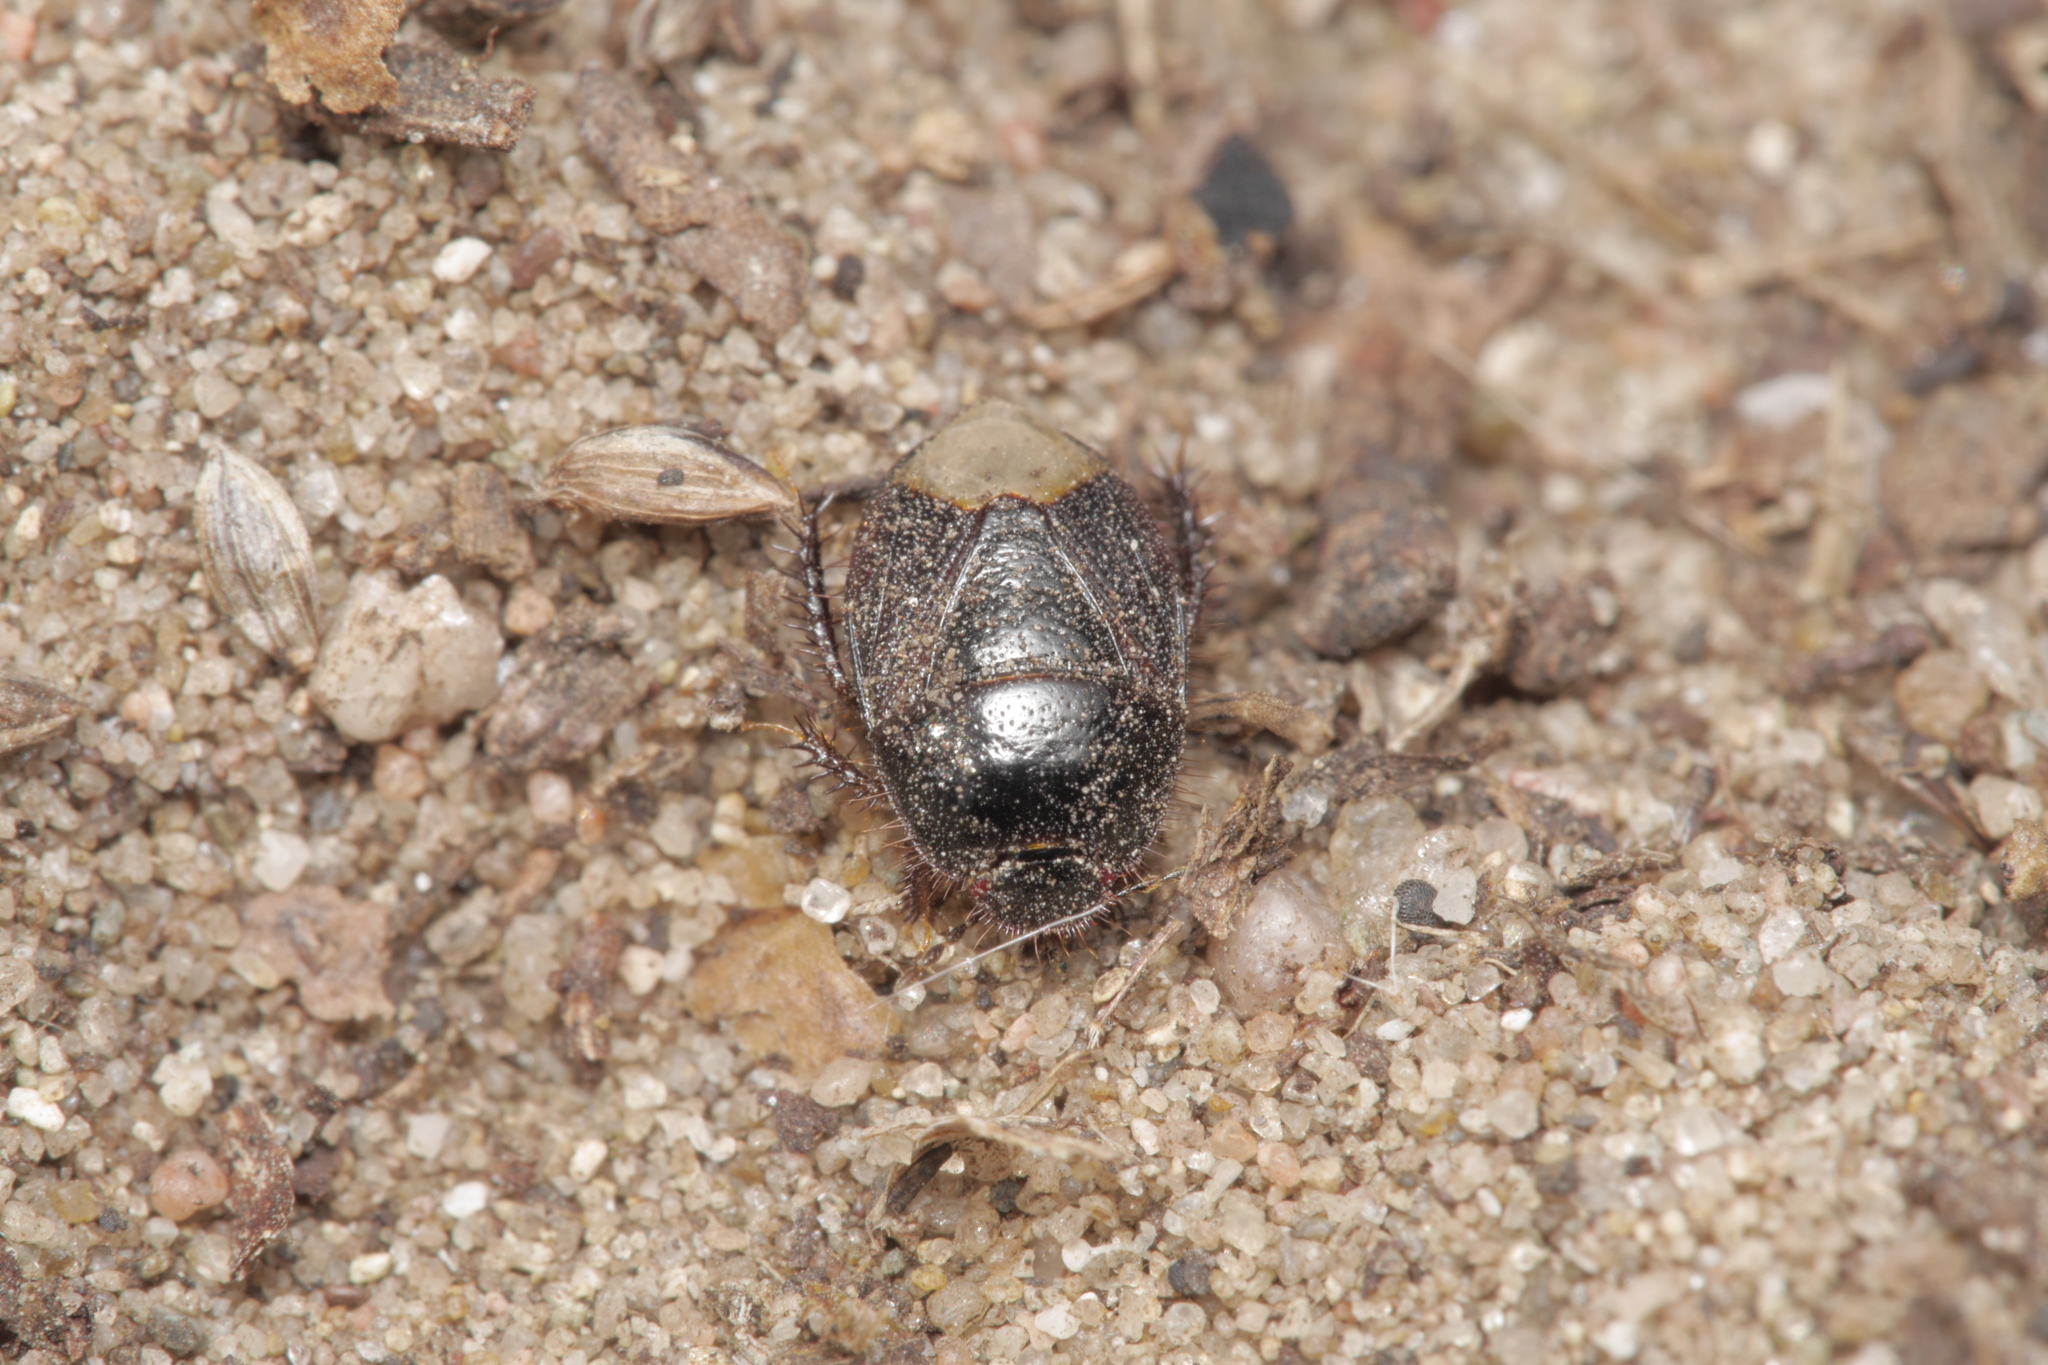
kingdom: Animalia
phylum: Arthropoda
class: Insecta
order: Hemiptera
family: Cydnidae
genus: Microporus
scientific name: Microporus nigrita
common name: Burrower bug
